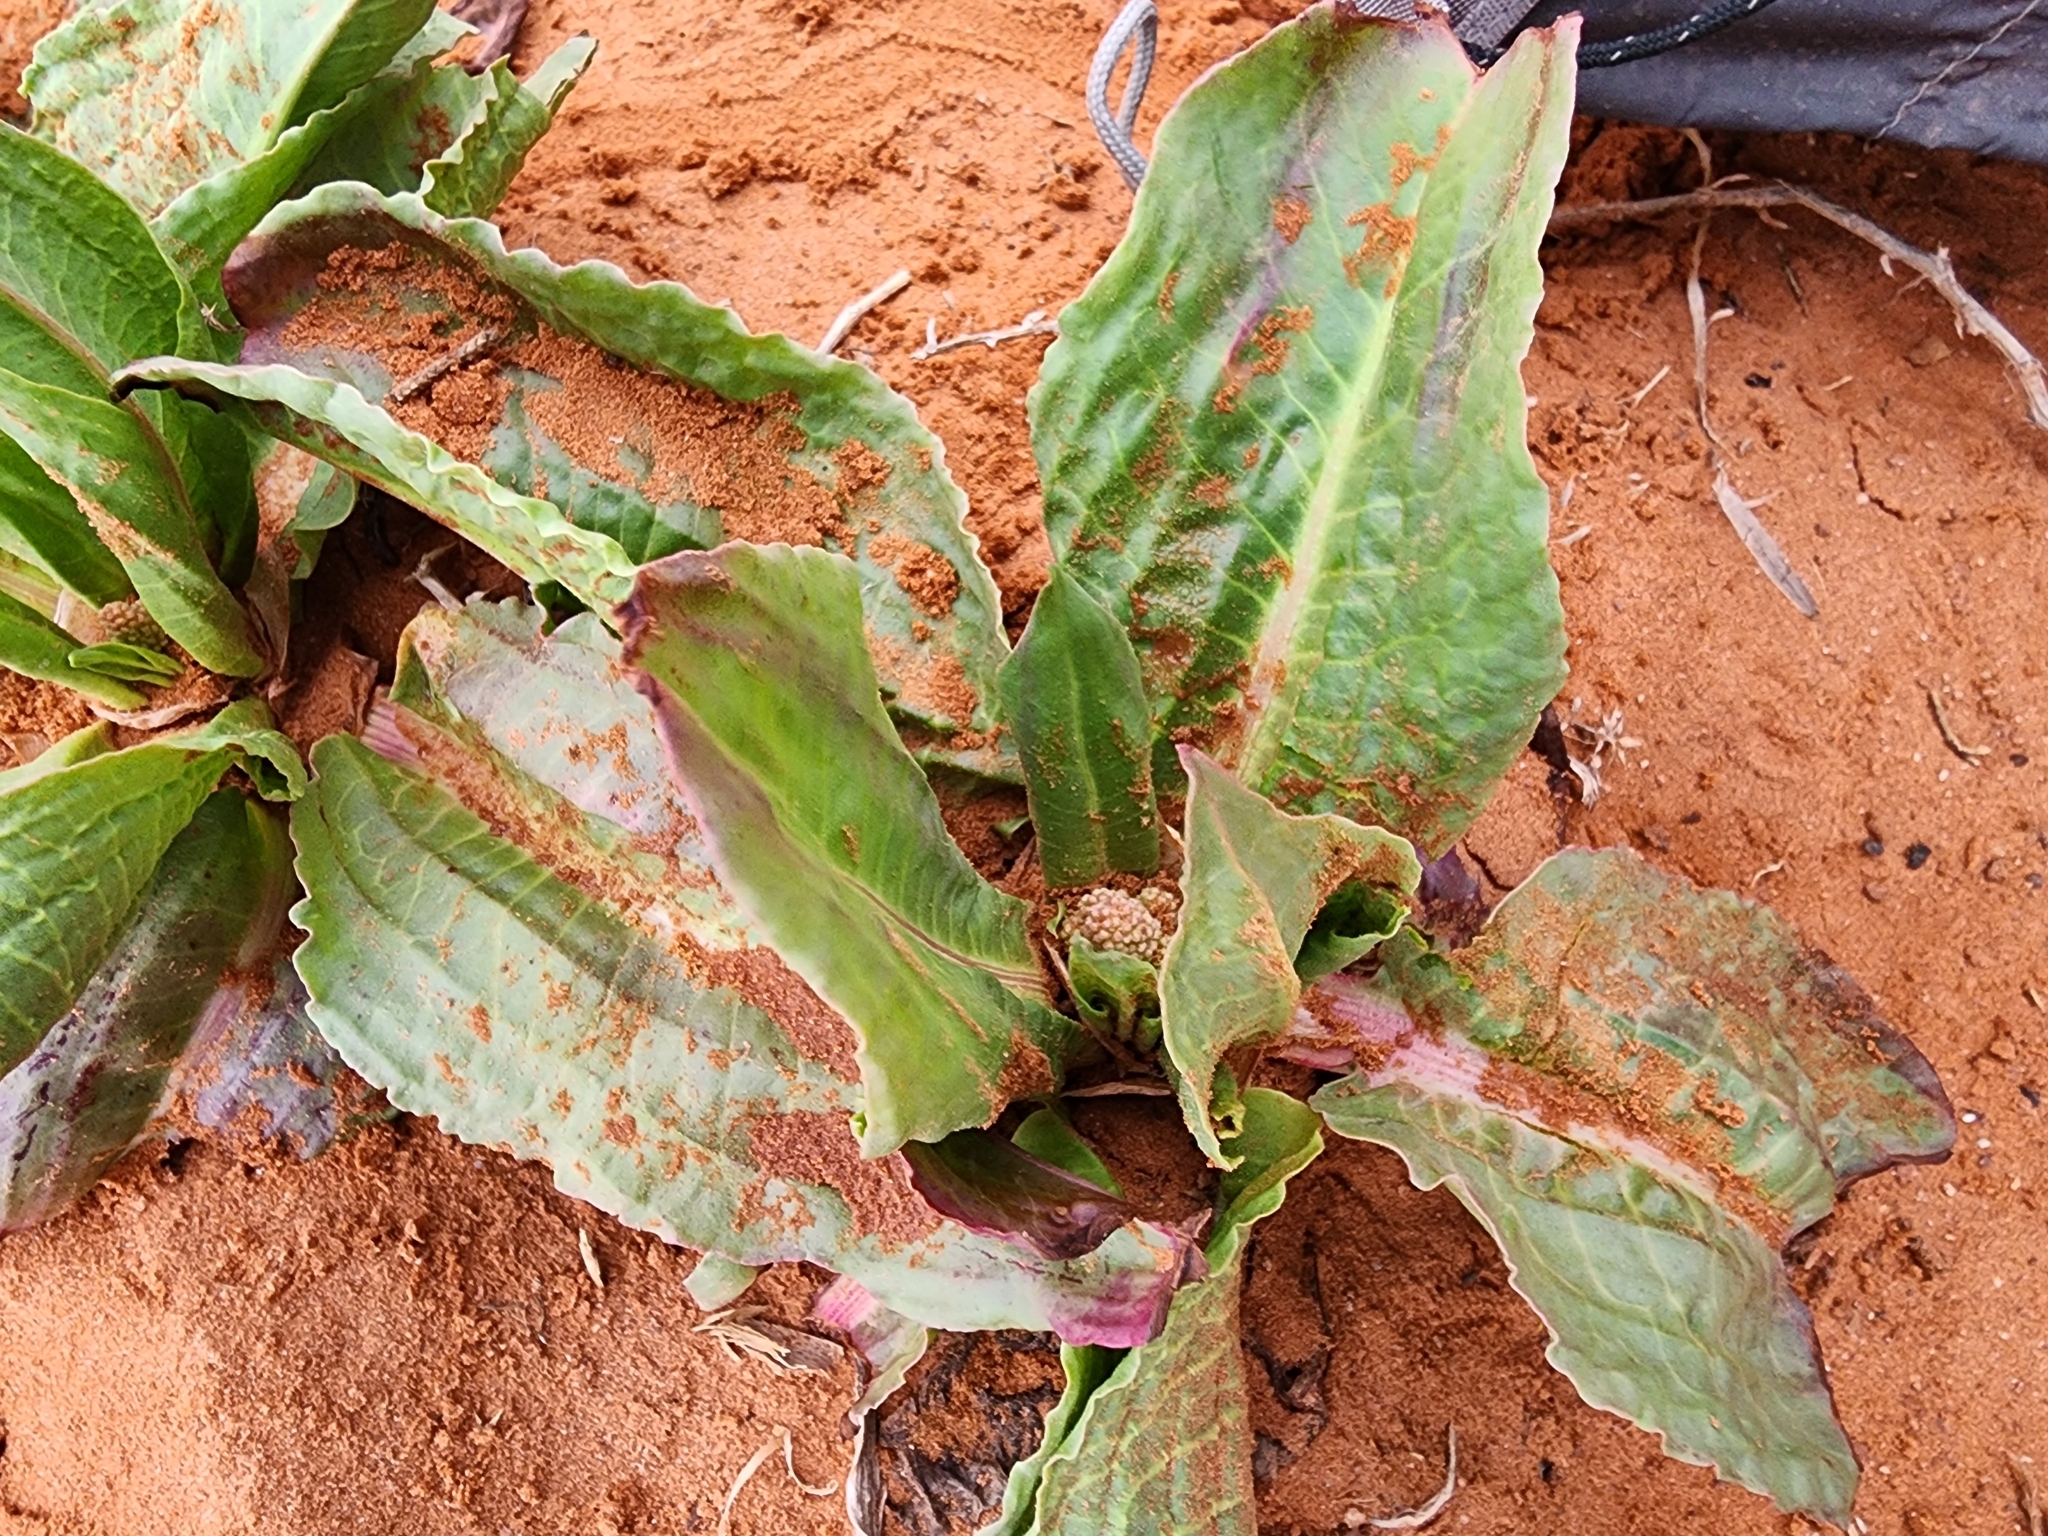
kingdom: Plantae
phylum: Tracheophyta
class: Magnoliopsida
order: Caryophyllales
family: Polygonaceae
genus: Rumex
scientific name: Rumex hymenosepalus
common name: Ganagra
